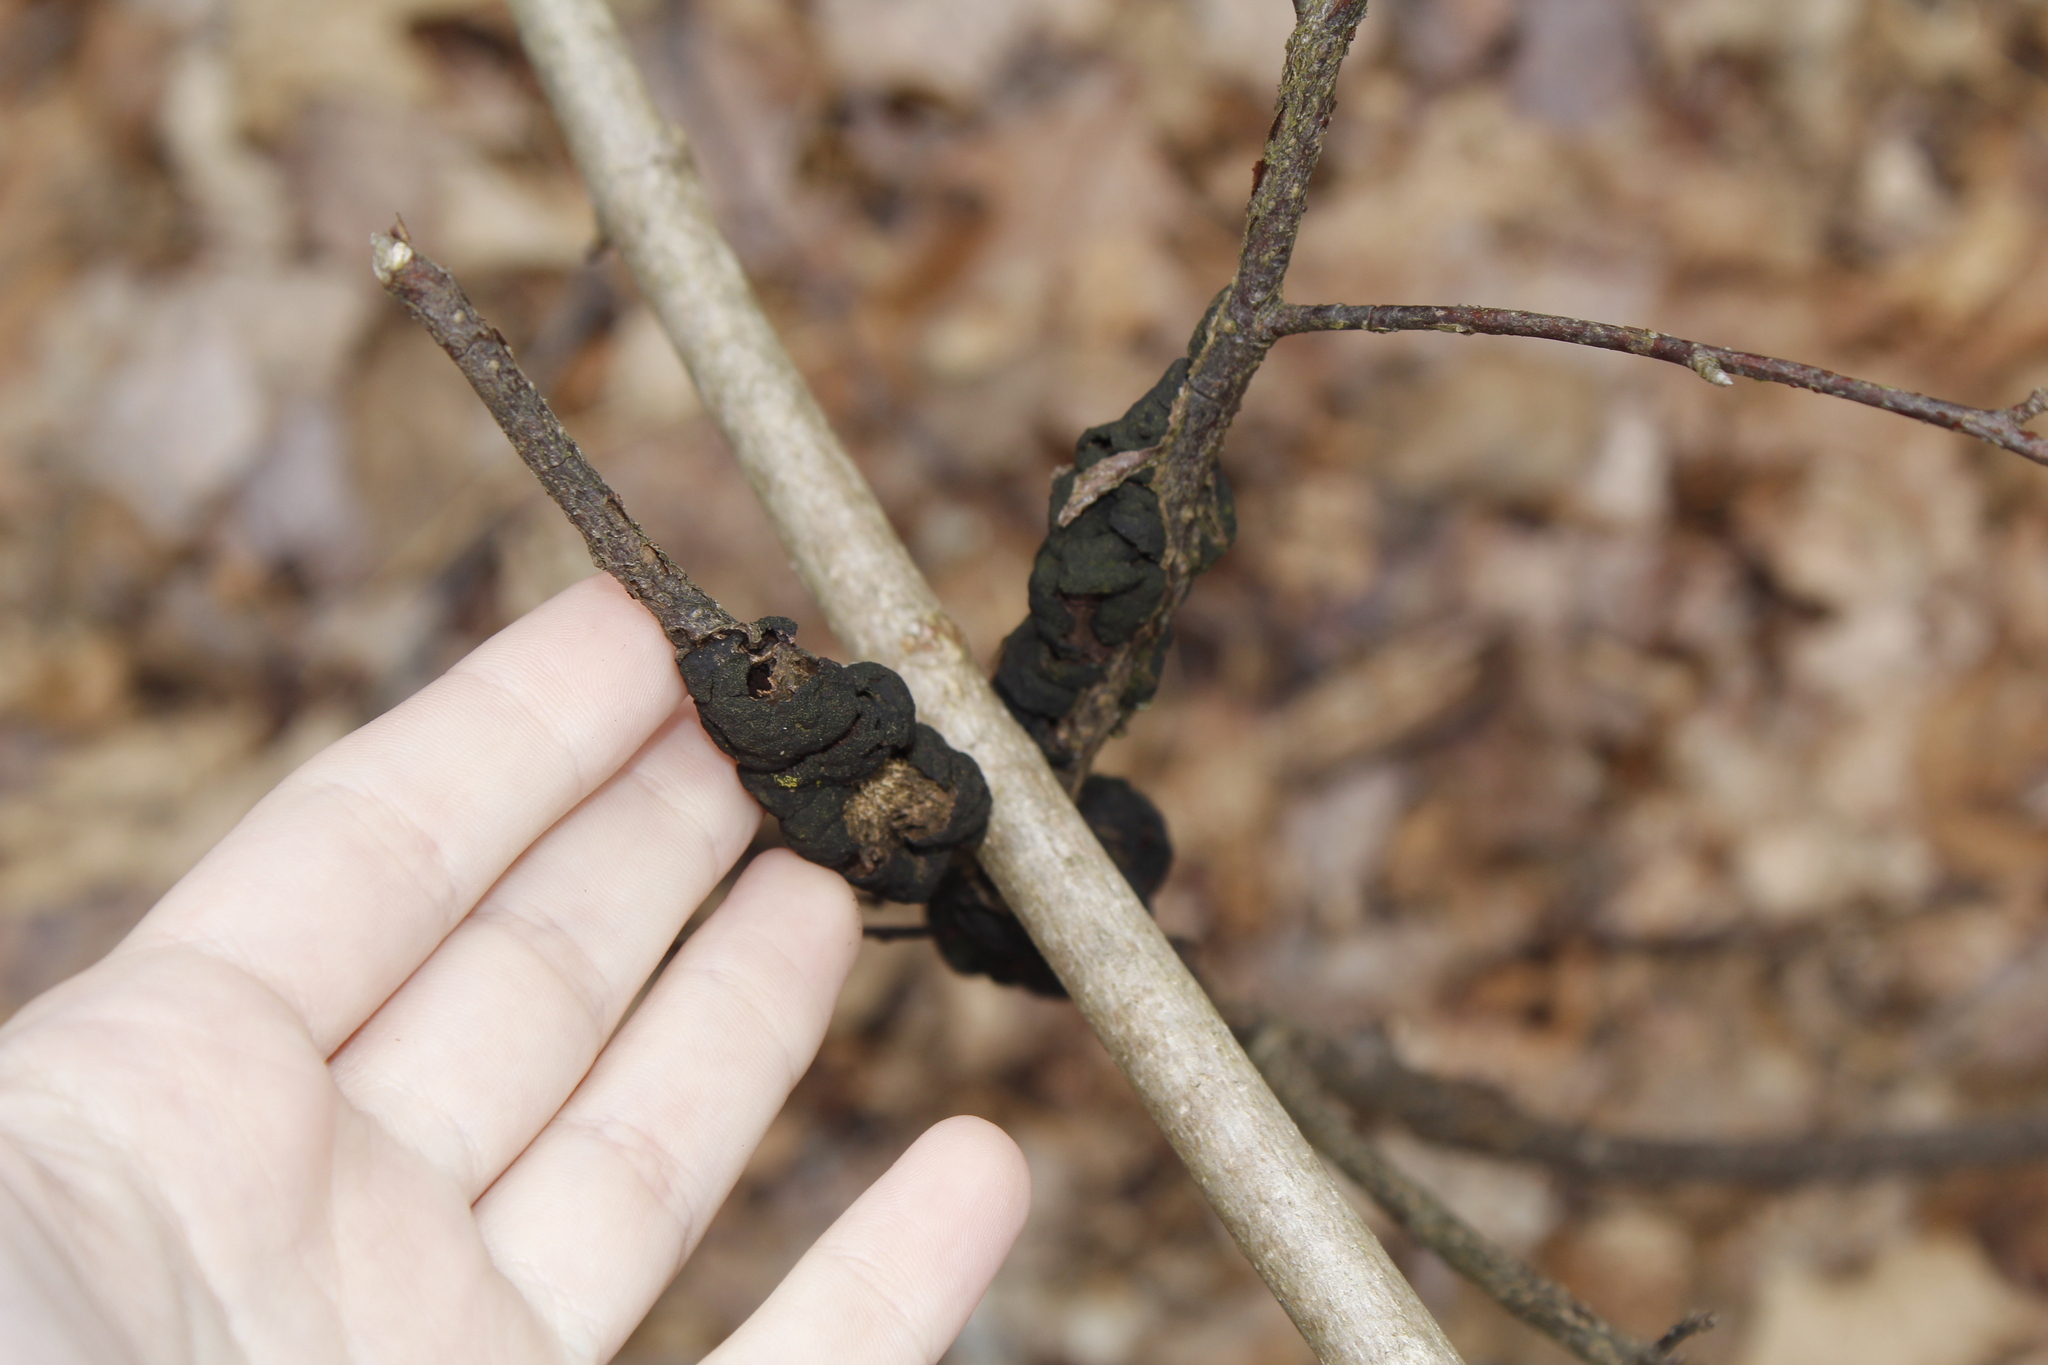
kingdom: Fungi
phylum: Ascomycota
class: Dothideomycetes
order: Venturiales
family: Venturiaceae
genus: Apiosporina
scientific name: Apiosporina morbosa
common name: Black knot
